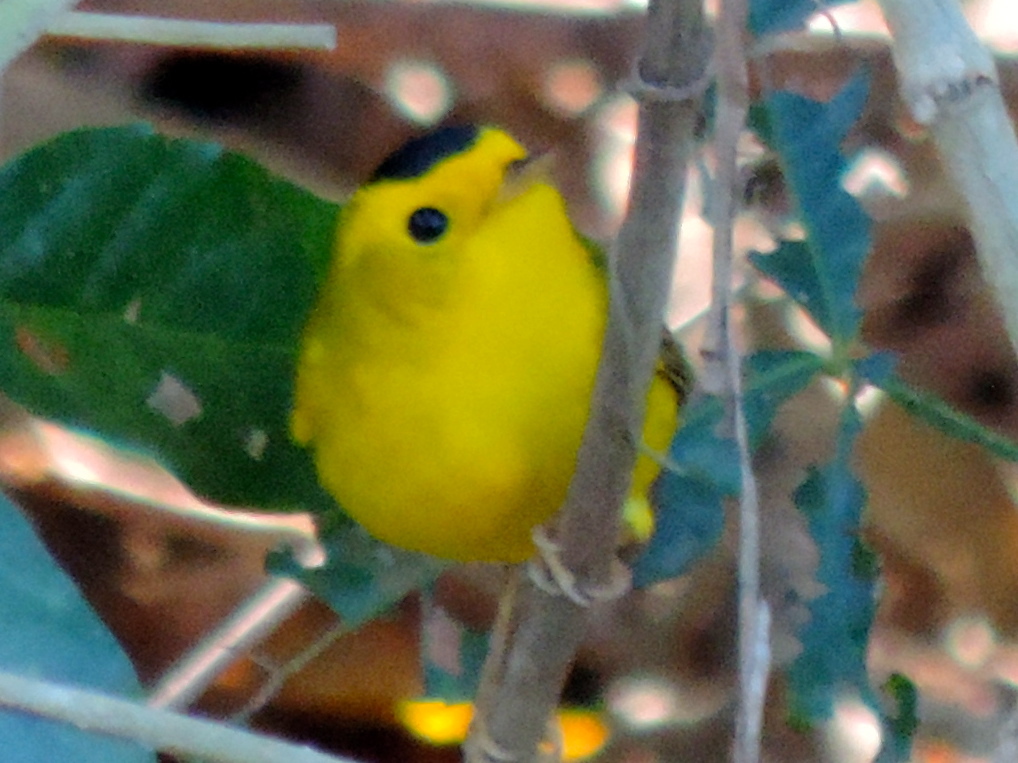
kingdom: Animalia
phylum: Chordata
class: Aves
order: Passeriformes
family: Parulidae
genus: Cardellina
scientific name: Cardellina pusilla
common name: Wilson's warbler
